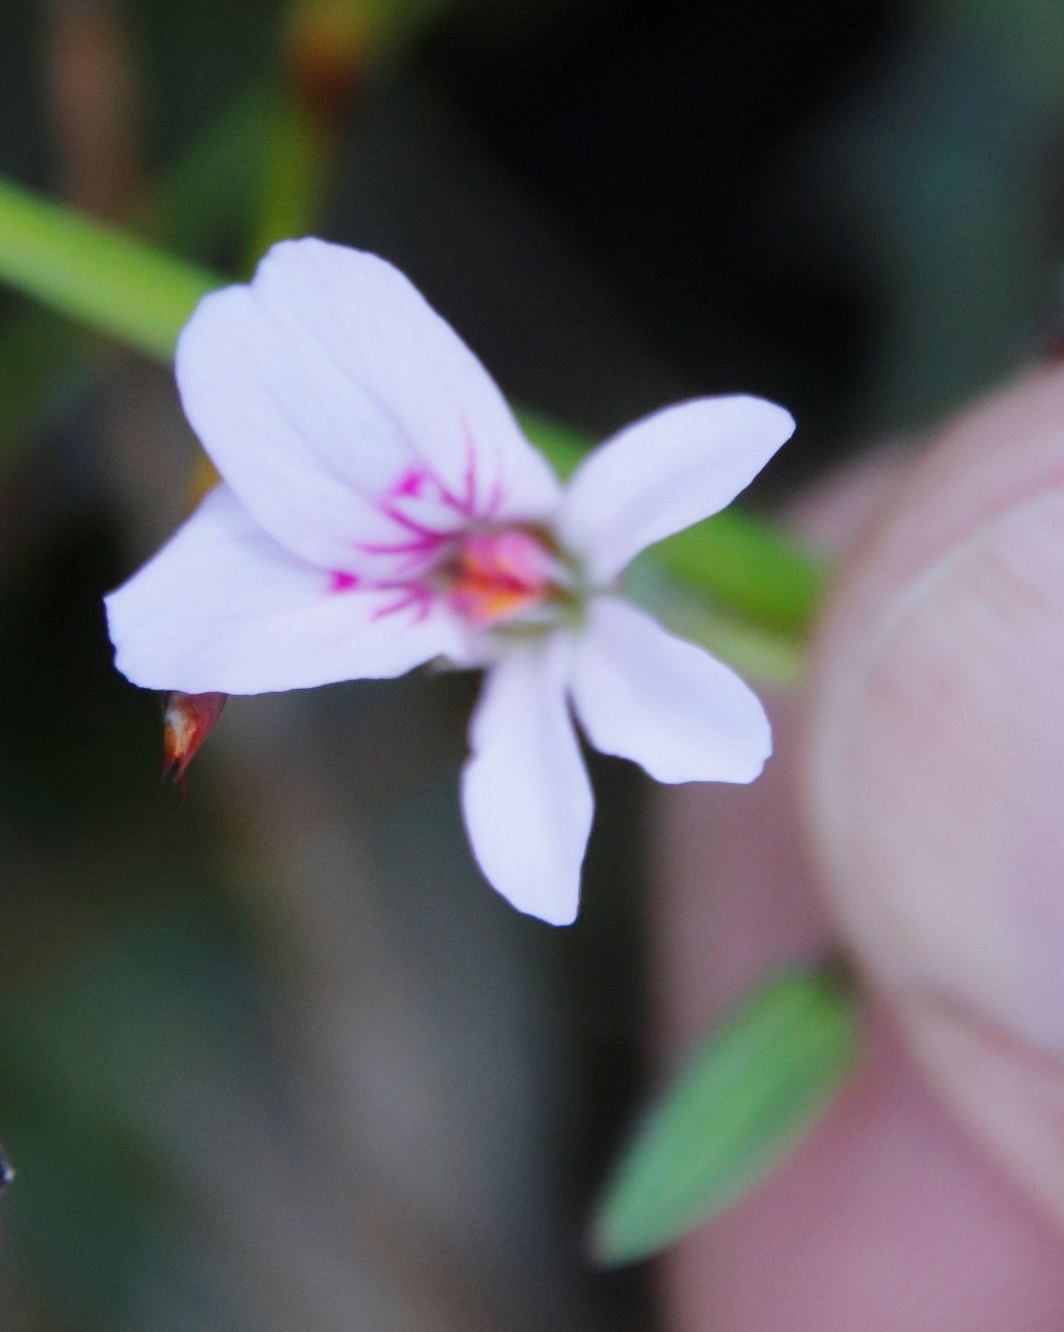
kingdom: Plantae
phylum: Tracheophyta
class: Magnoliopsida
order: Geraniales
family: Geraniaceae
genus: Pelargonium
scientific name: Pelargonium tabulare
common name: Table mountain pelargonium
